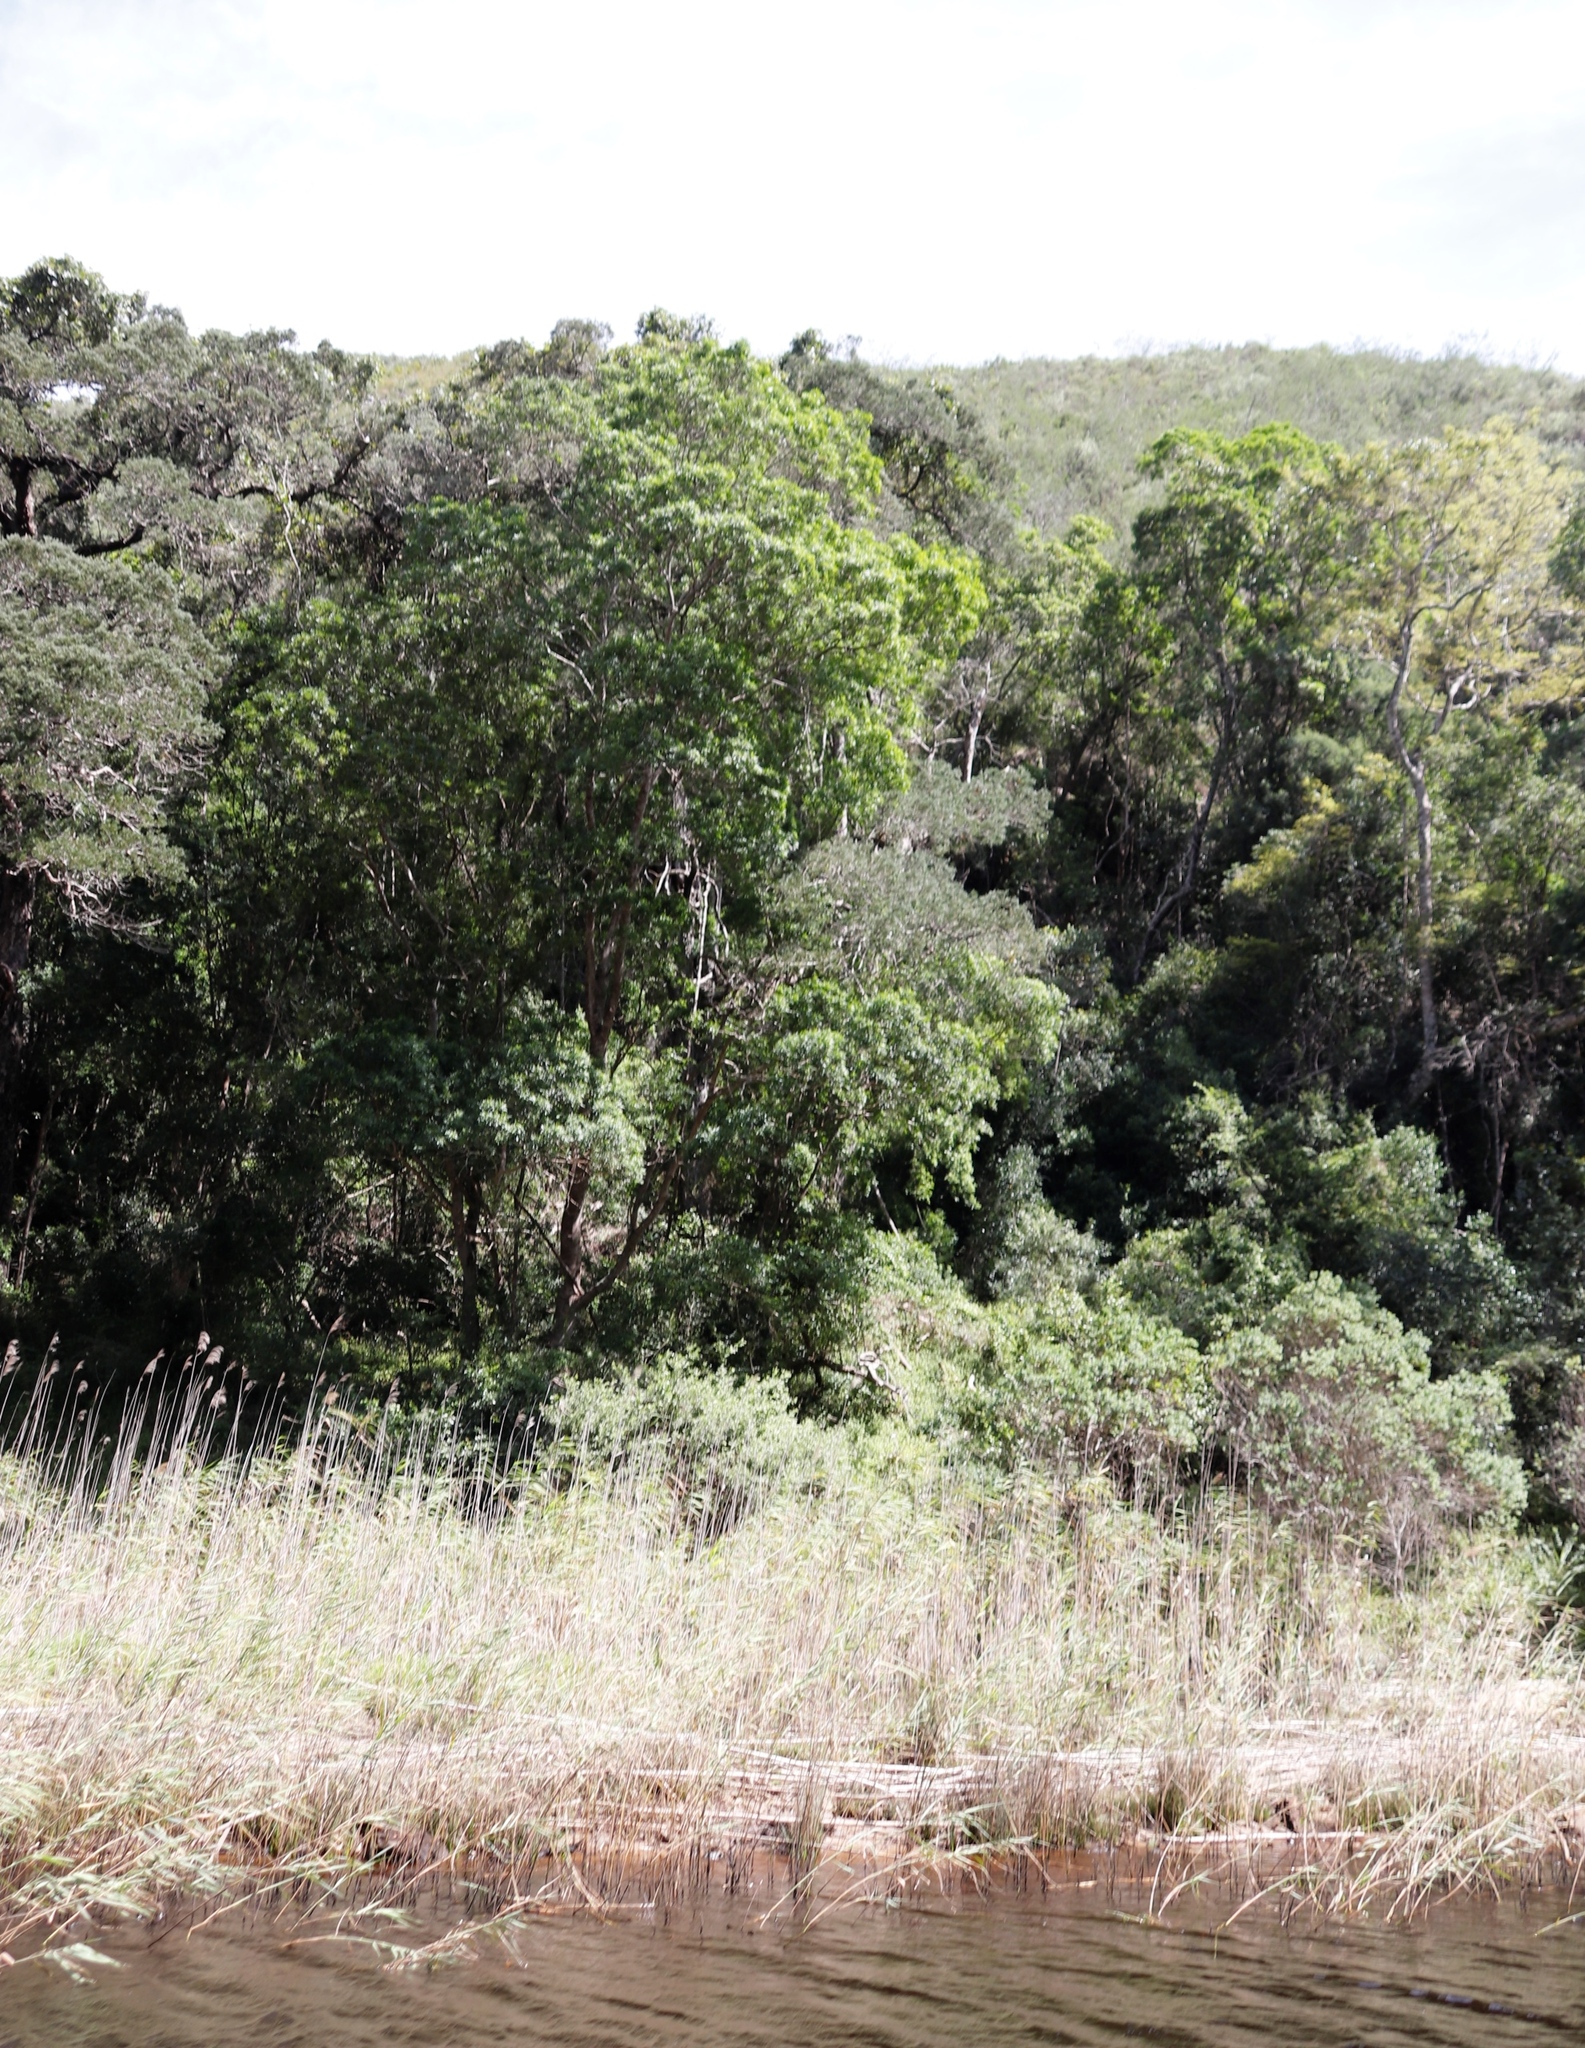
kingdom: Plantae
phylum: Tracheophyta
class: Magnoliopsida
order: Sapindales
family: Rutaceae
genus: Vepris
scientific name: Vepris lanceolata
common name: White ironwood
